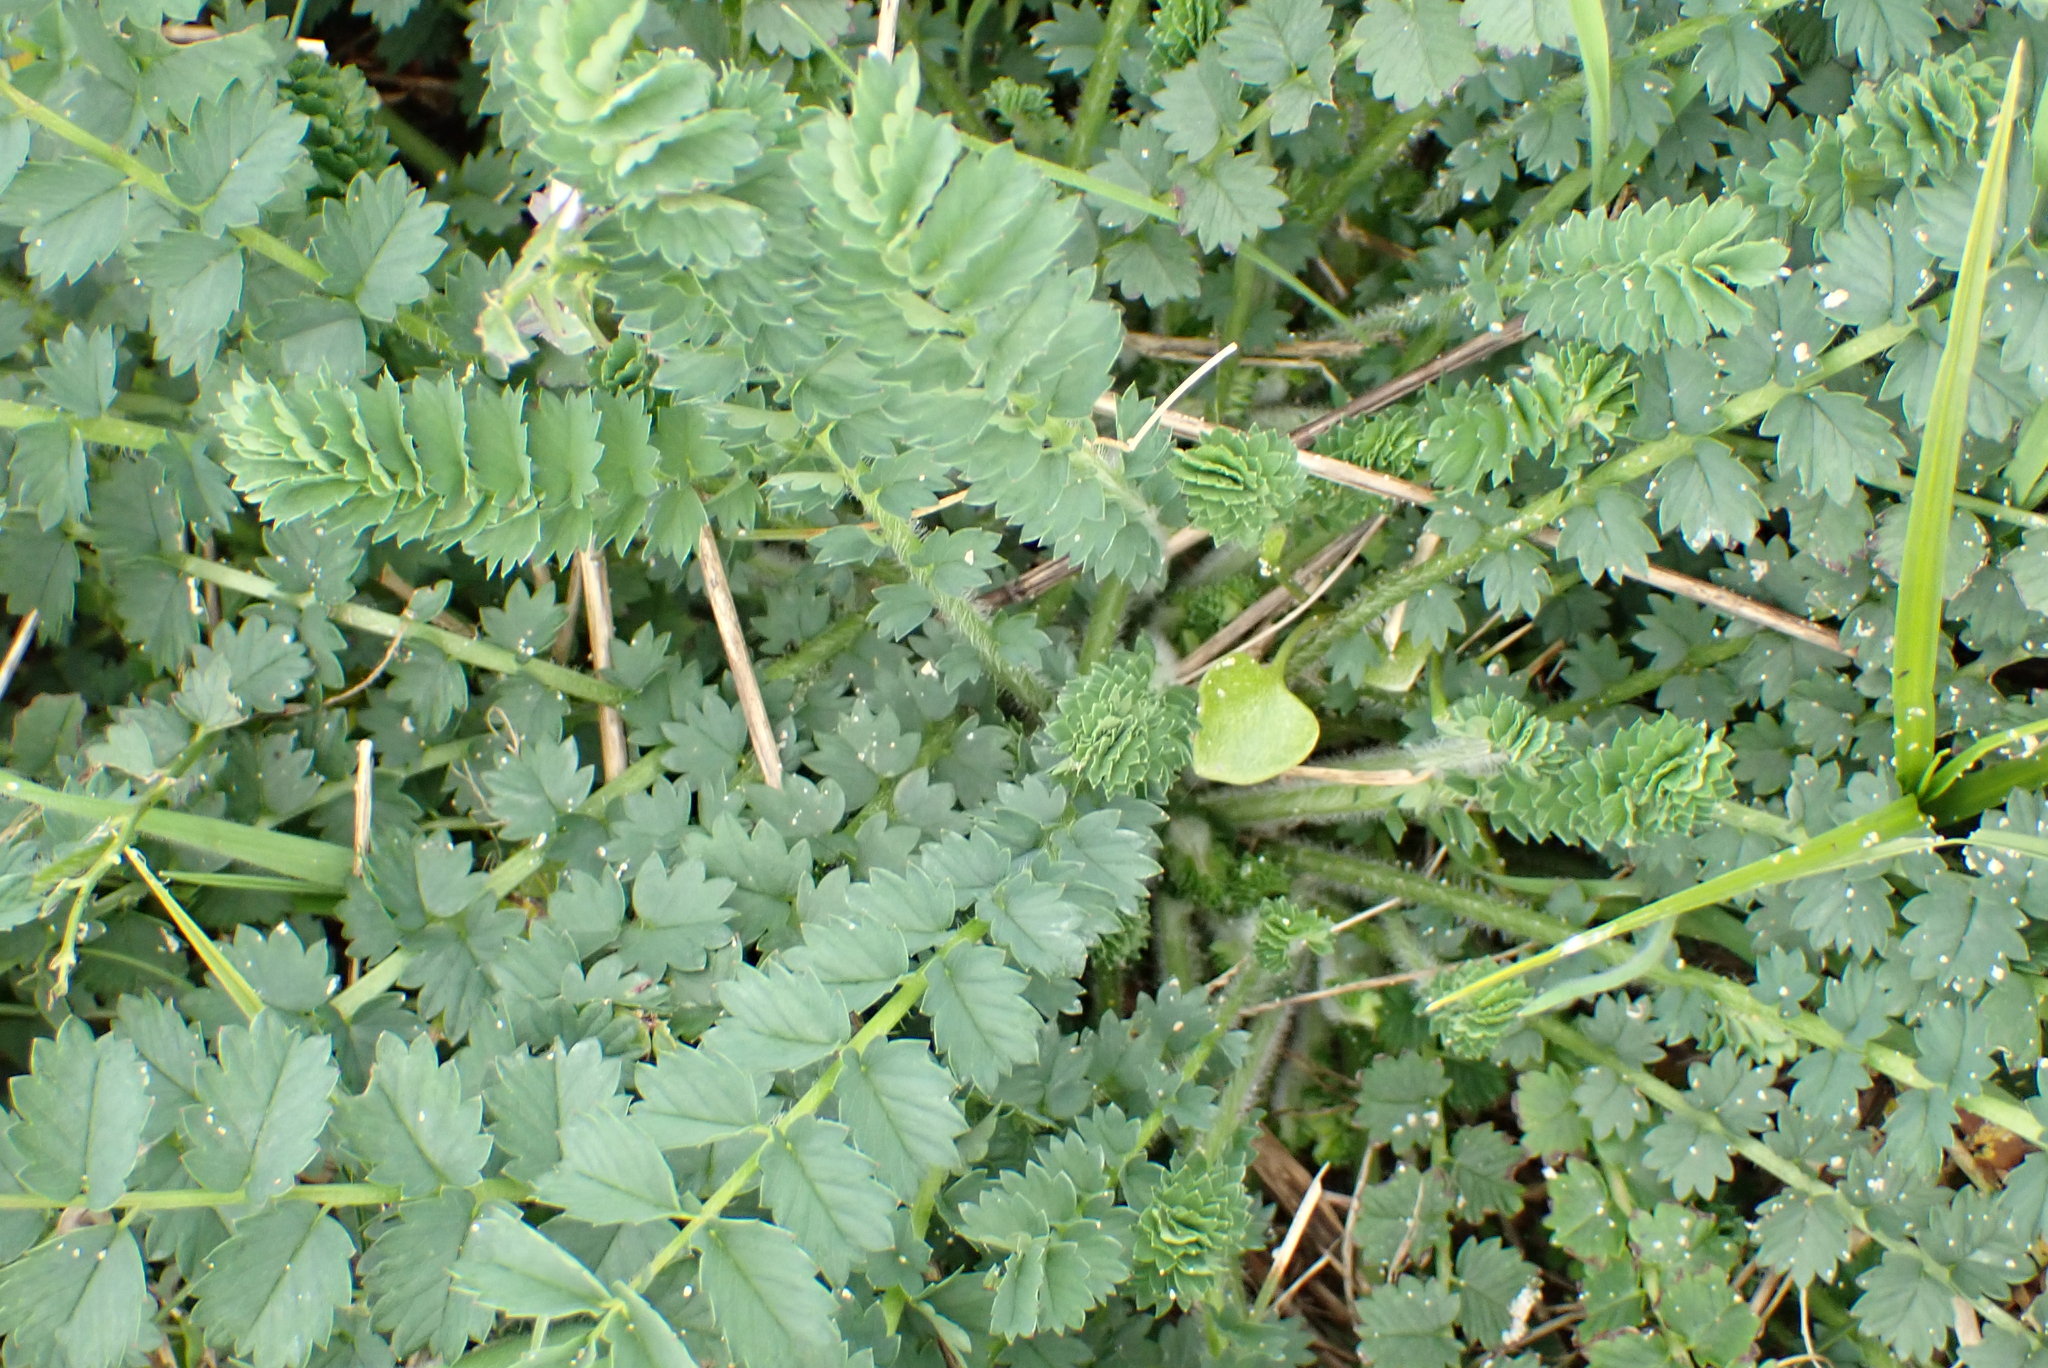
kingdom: Plantae
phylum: Tracheophyta
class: Magnoliopsida
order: Rosales
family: Rosaceae
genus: Poterium
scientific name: Poterium sanguisorba
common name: Salad burnet
